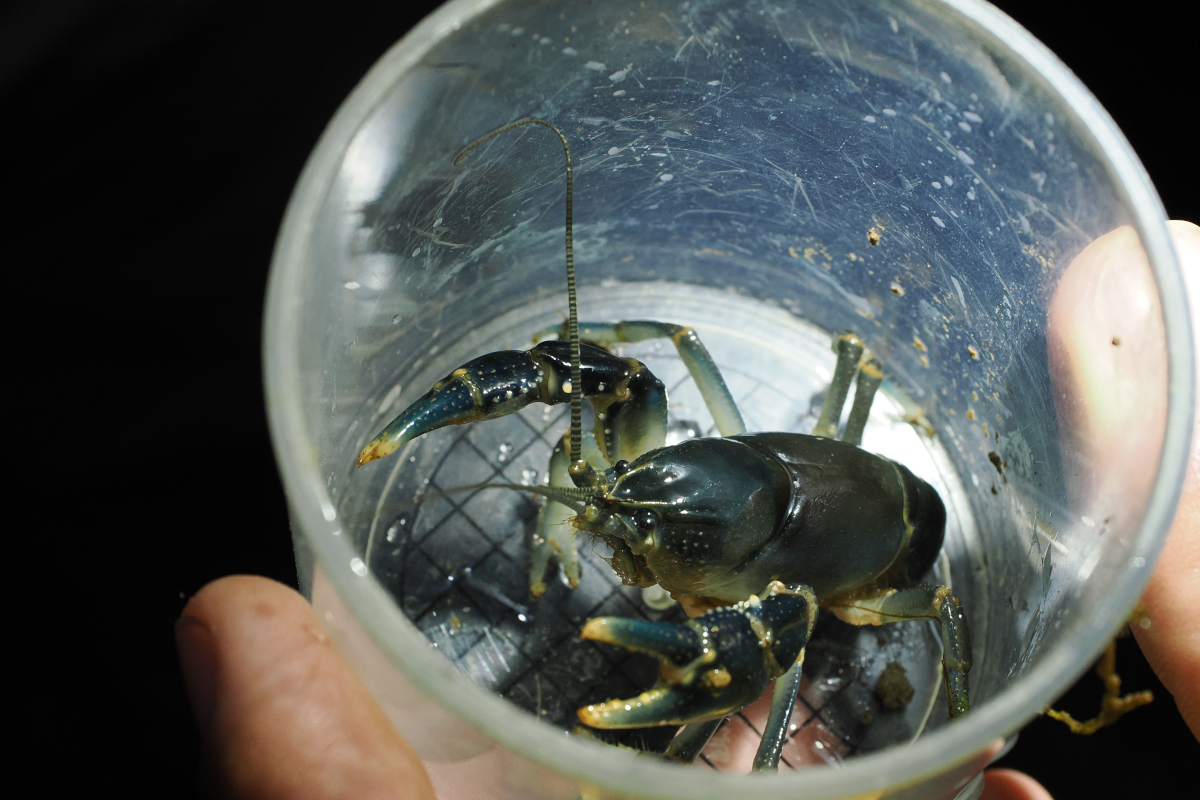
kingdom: Animalia
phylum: Arthropoda
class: Malacostraca
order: Decapoda
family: Cambaridae
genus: Cambarus
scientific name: Cambarus dubius
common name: Upland burrowing crayfish
